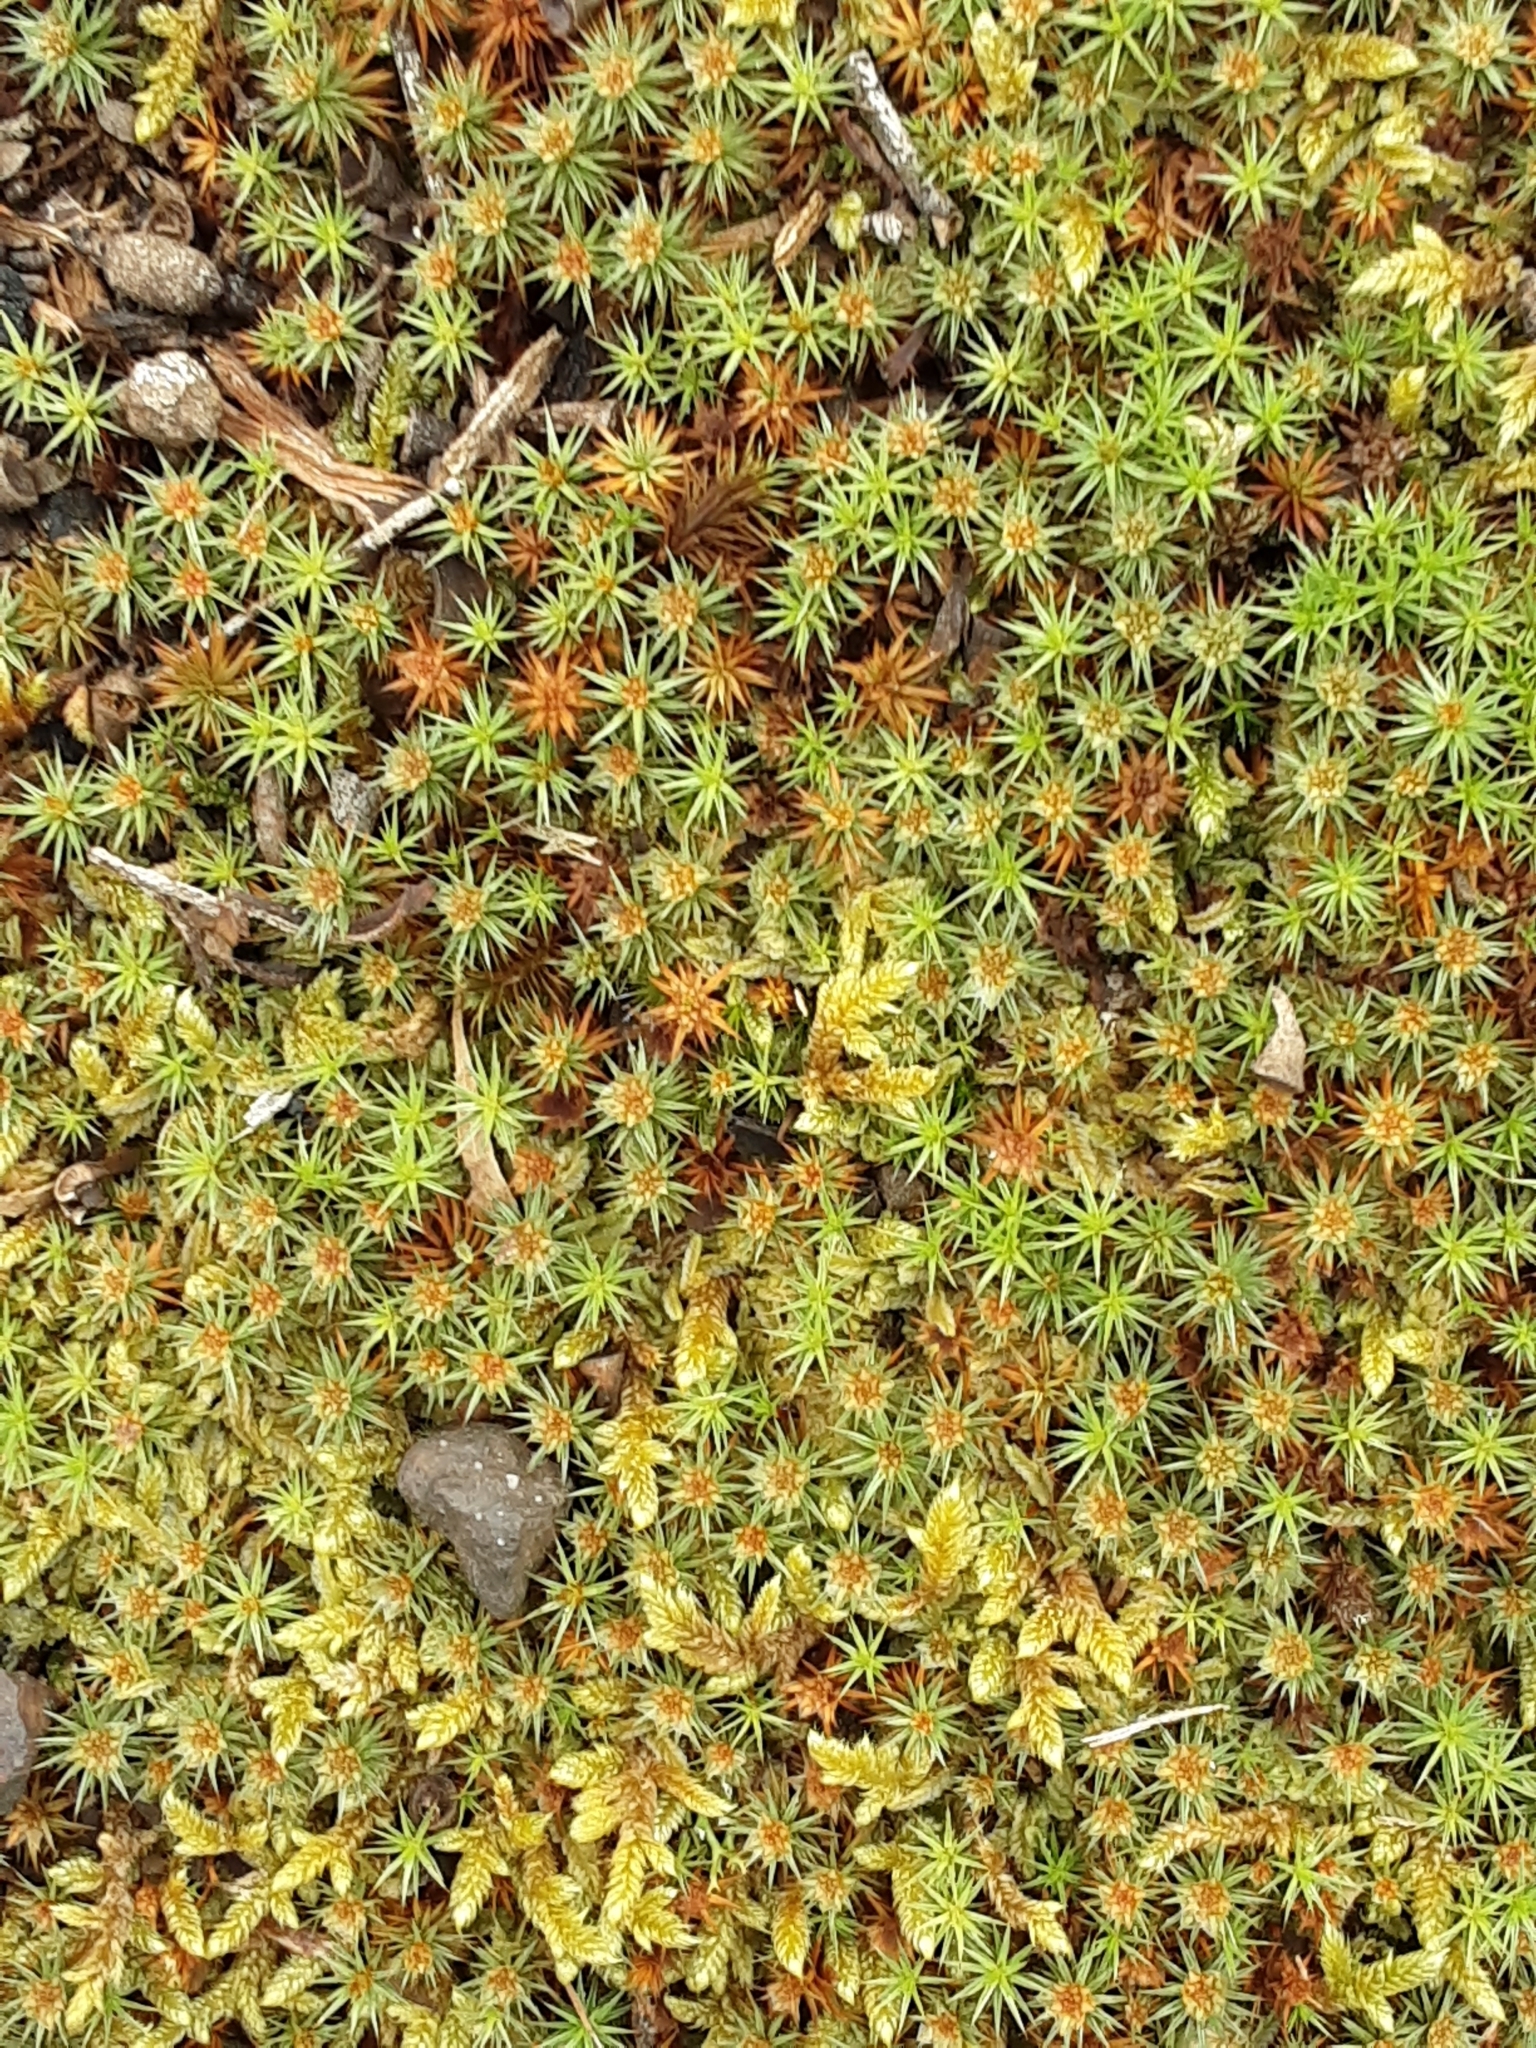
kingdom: Plantae
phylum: Bryophyta
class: Polytrichopsida
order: Polytrichales
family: Polytrichaceae
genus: Polytrichum
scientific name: Polytrichum juniperinum
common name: Juniper haircap moss
